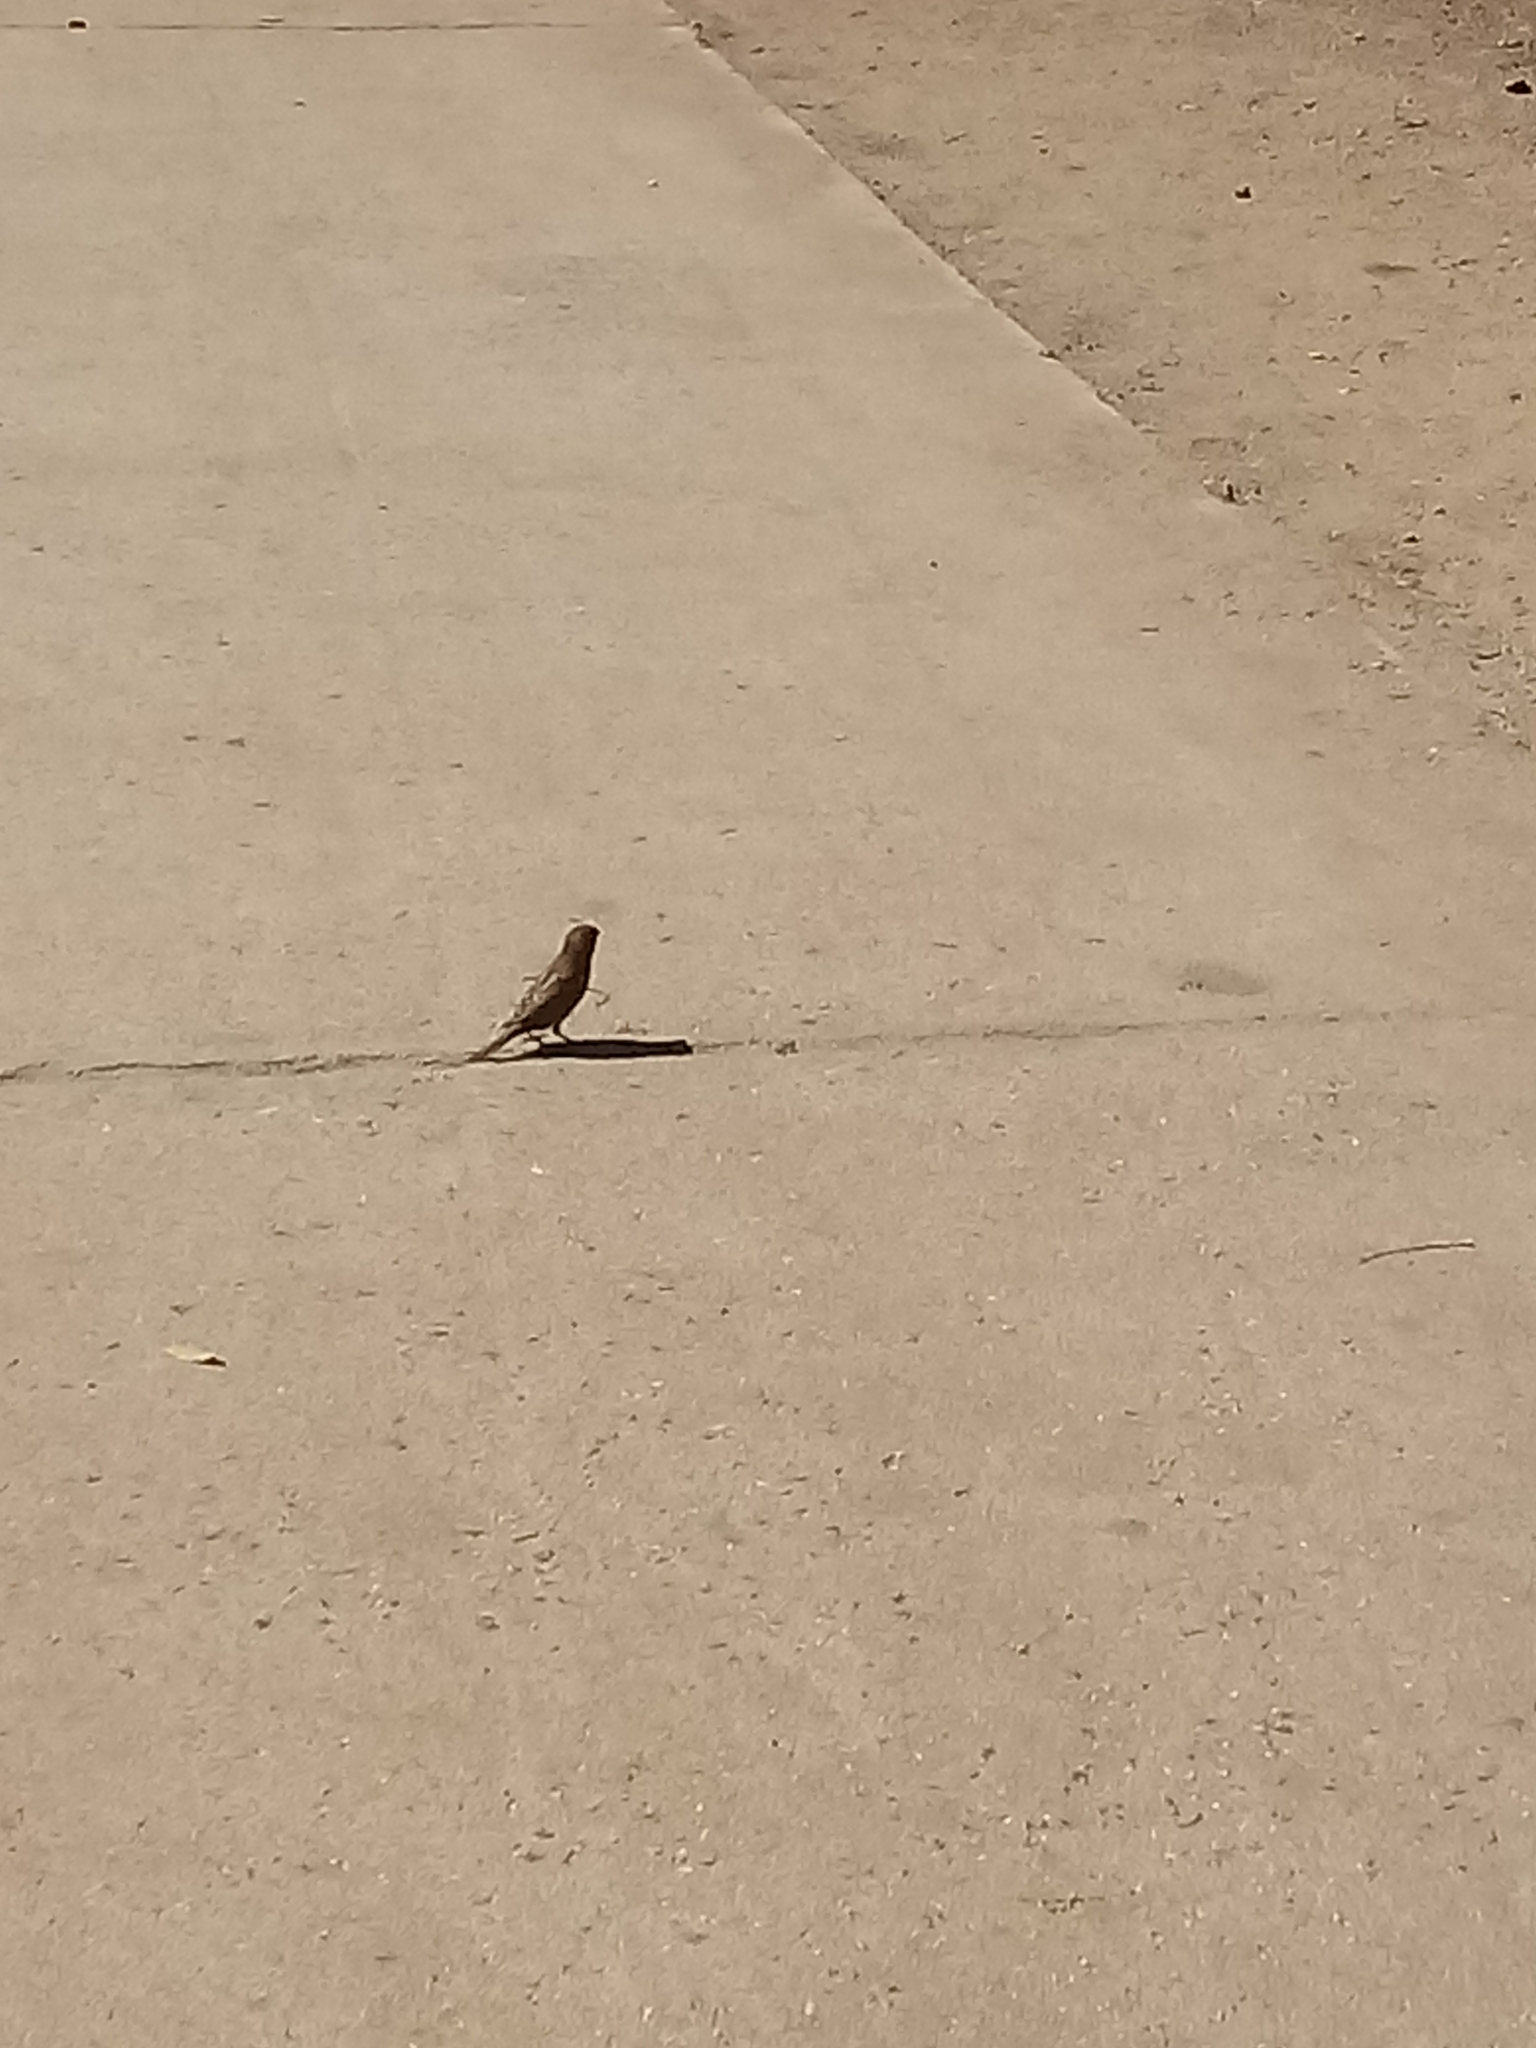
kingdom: Animalia
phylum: Chordata
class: Aves
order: Passeriformes
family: Passeridae
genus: Passer
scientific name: Passer domesticus
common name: House sparrow
